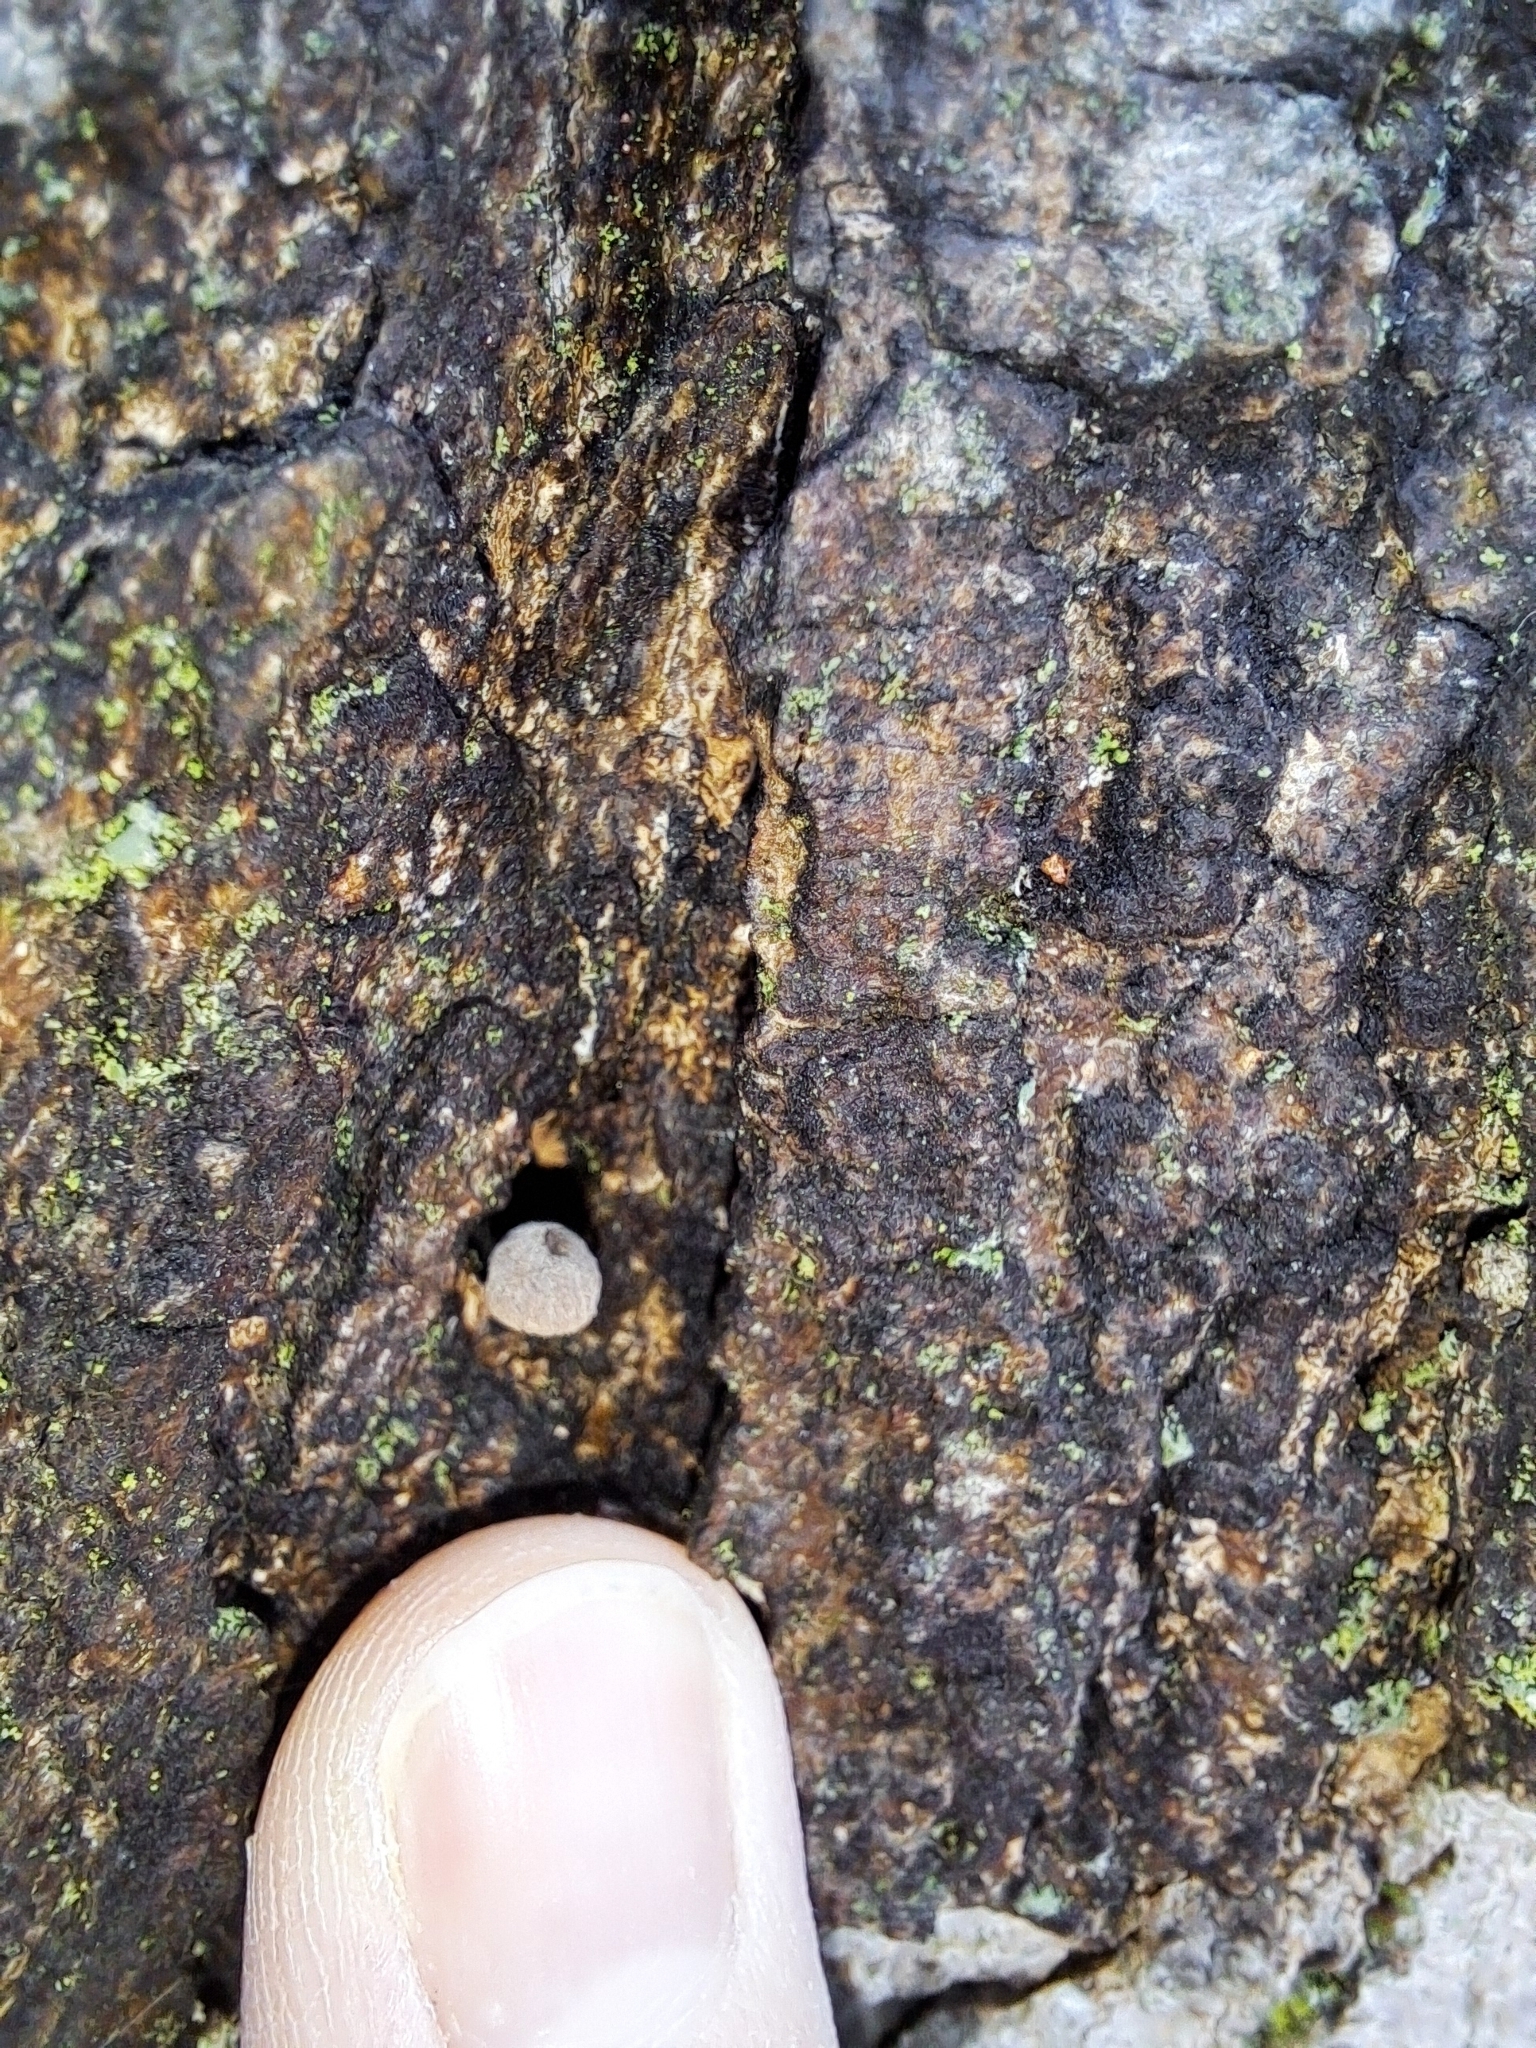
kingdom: Fungi
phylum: Basidiomycota
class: Agaricomycetes
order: Agaricales
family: Mycenaceae
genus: Mycena
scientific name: Mycena corticola
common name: Bark mycena
